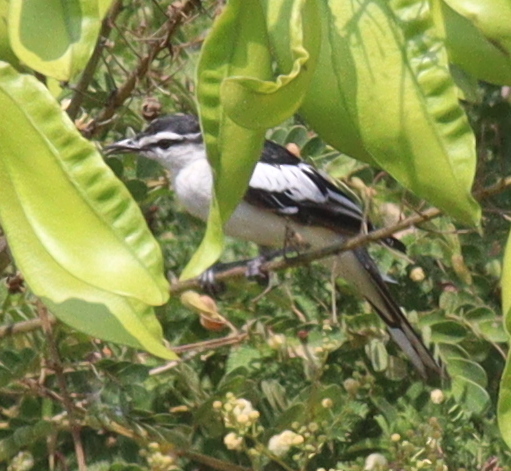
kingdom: Animalia
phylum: Chordata
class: Aves
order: Passeriformes
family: Campephagidae
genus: Lalage
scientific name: Lalage sueurii
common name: White-shouldered triller
